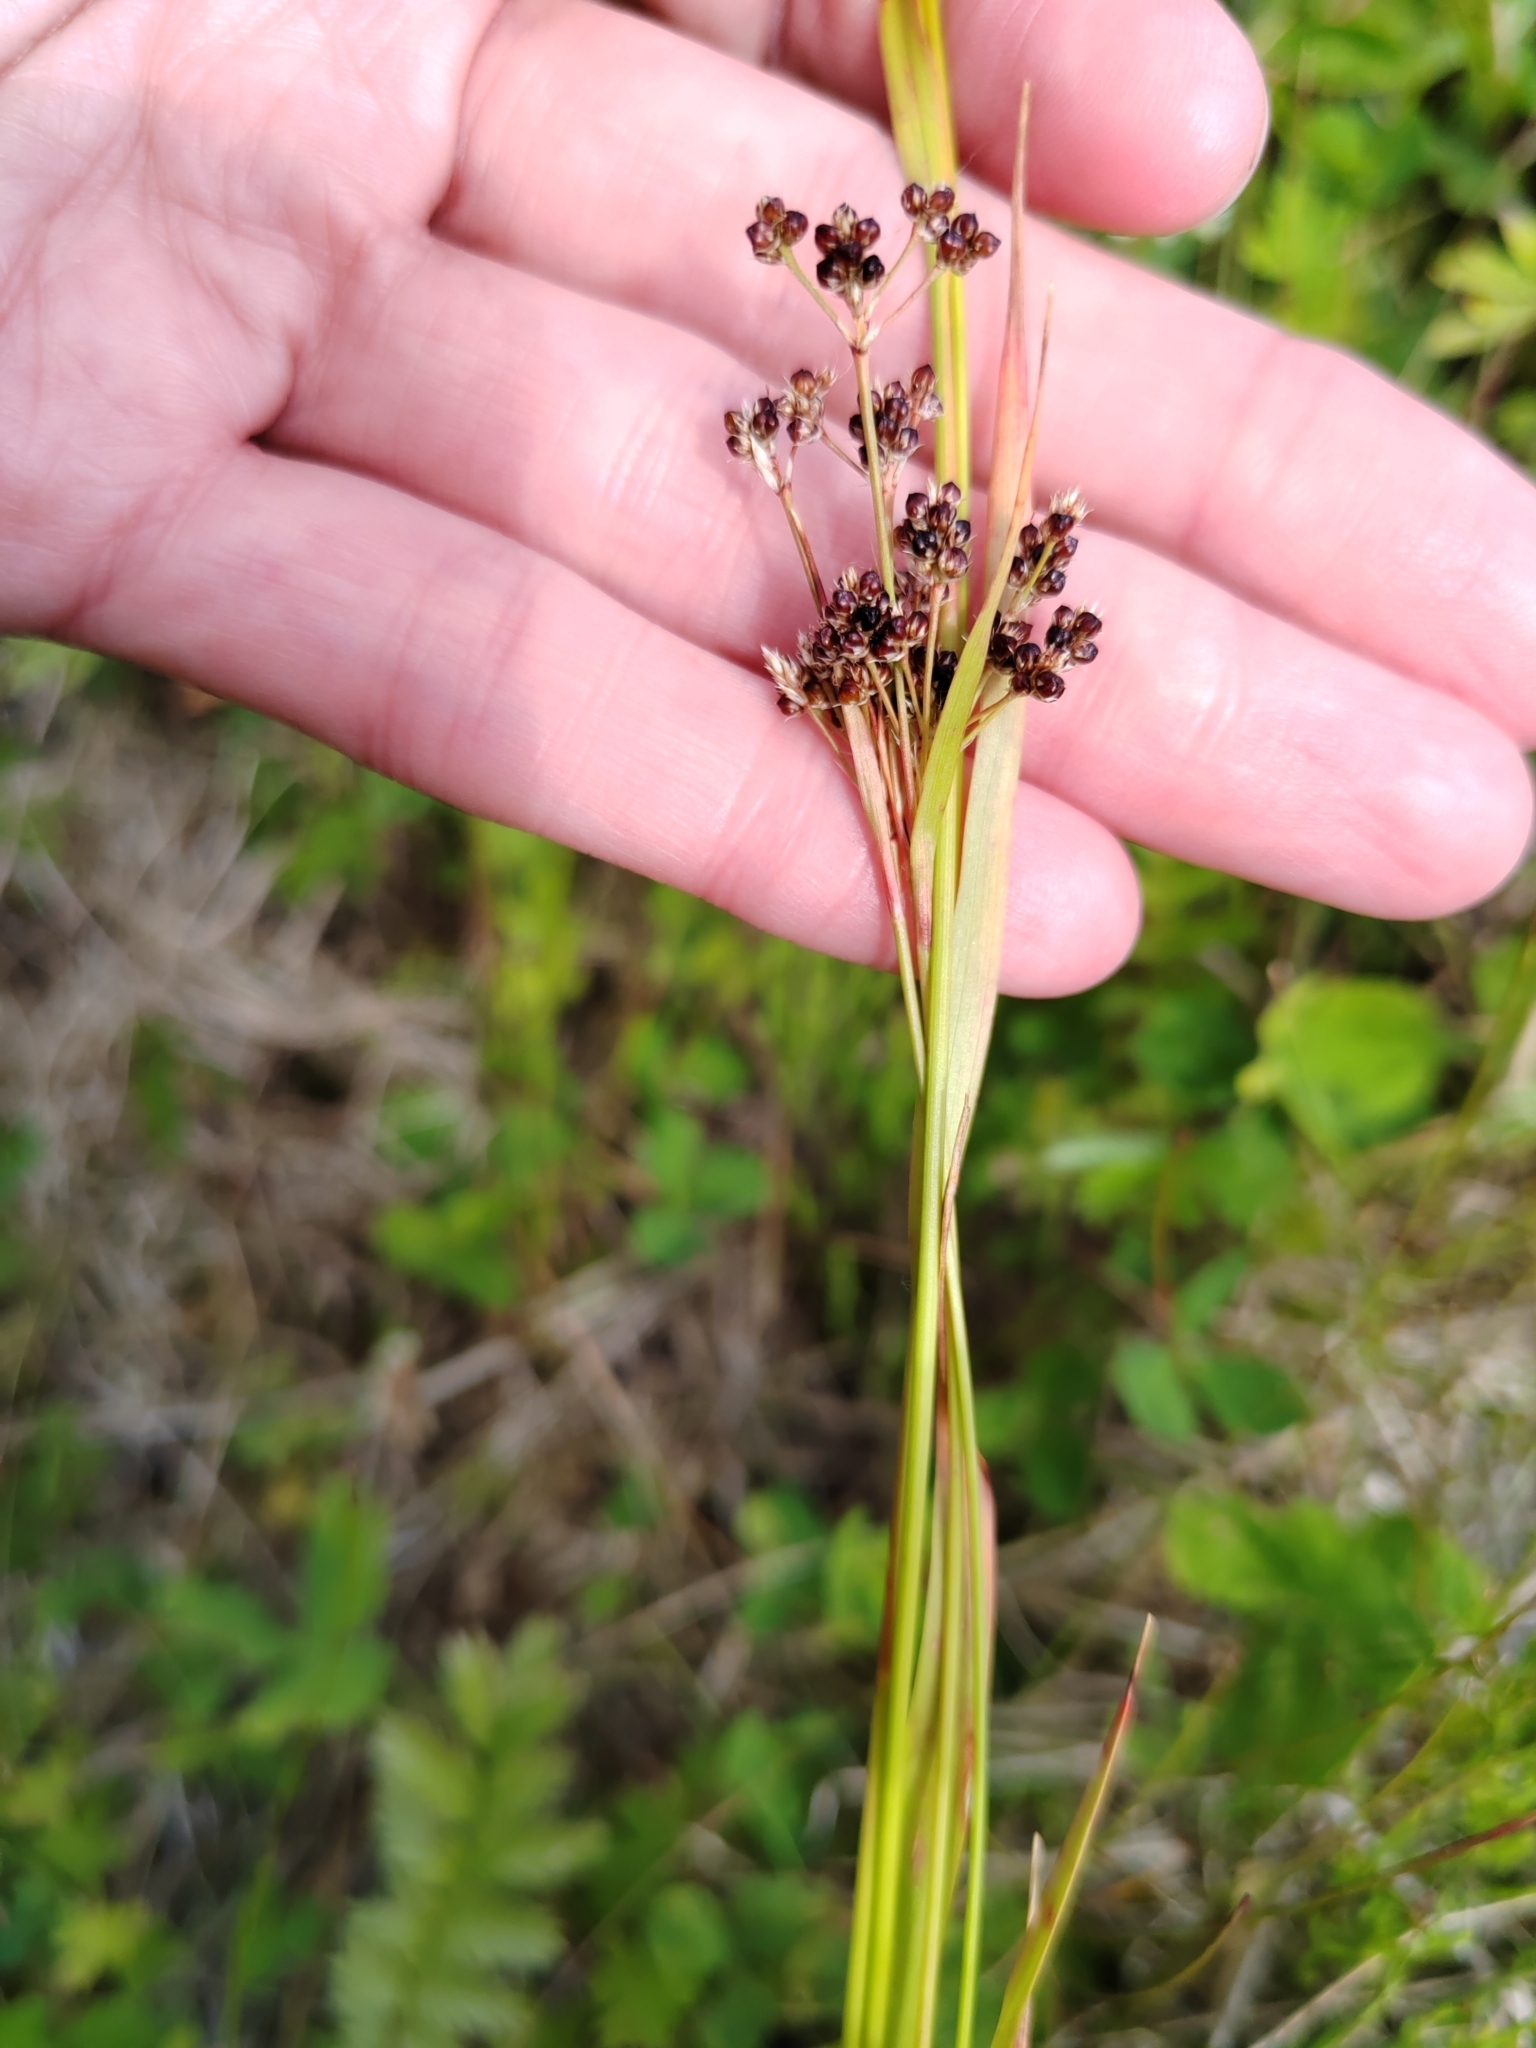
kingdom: Plantae
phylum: Tracheophyta
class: Liliopsida
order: Poales
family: Juncaceae
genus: Juncus
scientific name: Juncus compressus
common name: Round-fruited rush
